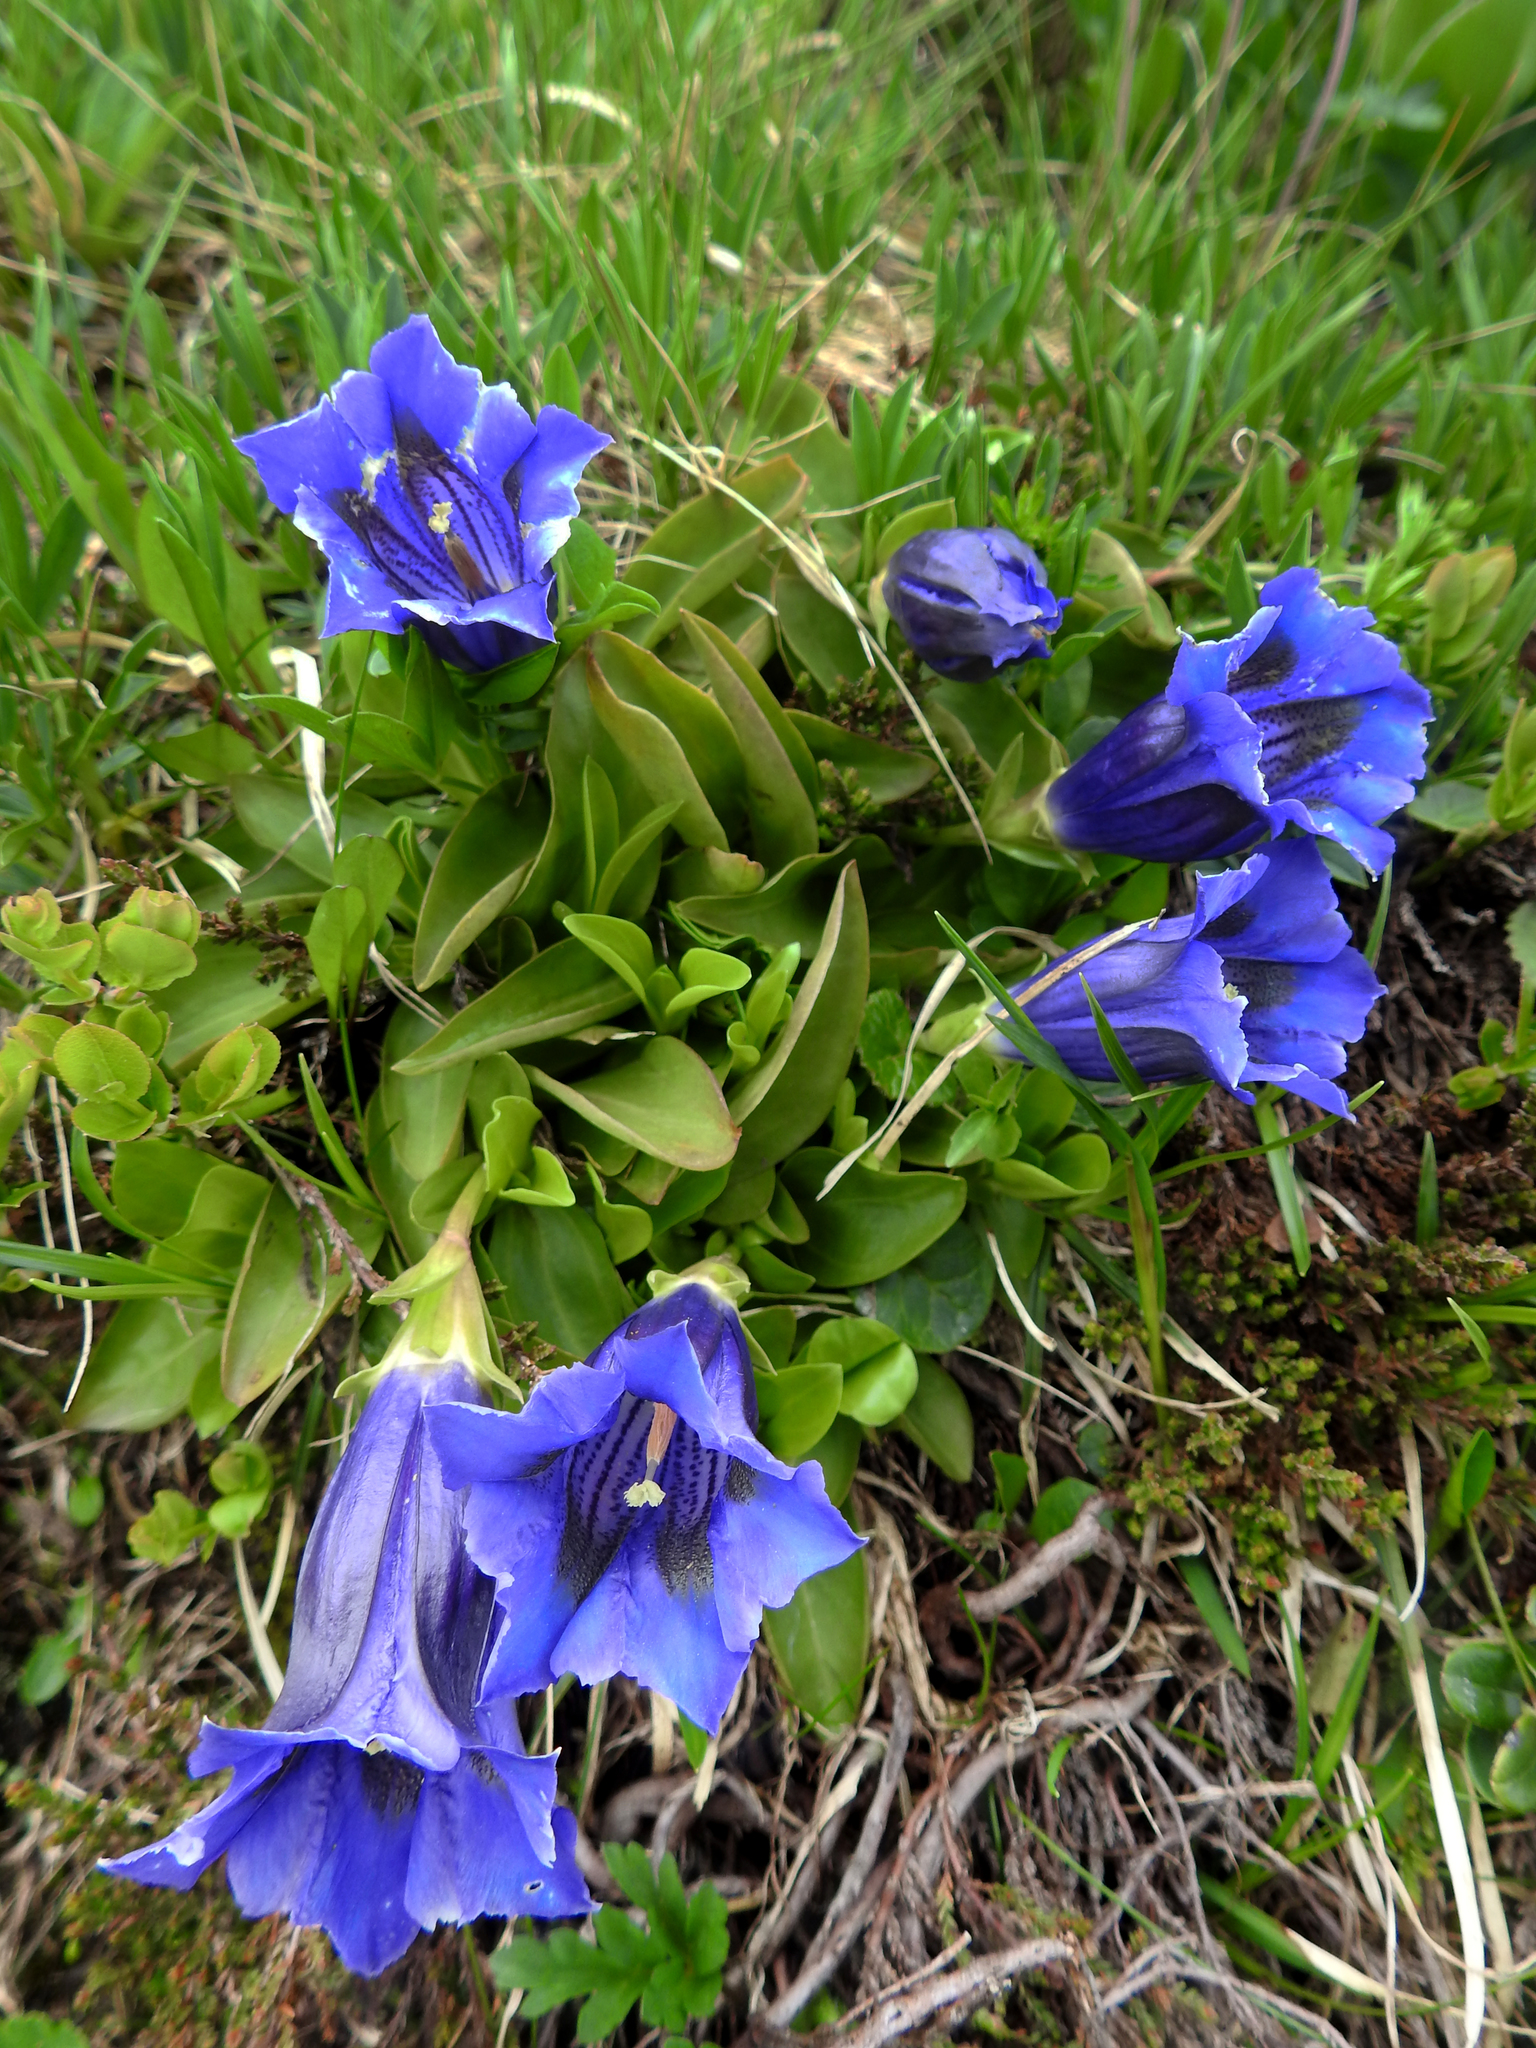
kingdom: Plantae
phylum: Tracheophyta
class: Magnoliopsida
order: Gentianales
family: Gentianaceae
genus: Gentiana
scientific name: Gentiana acaulis
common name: Trumpet gentian
